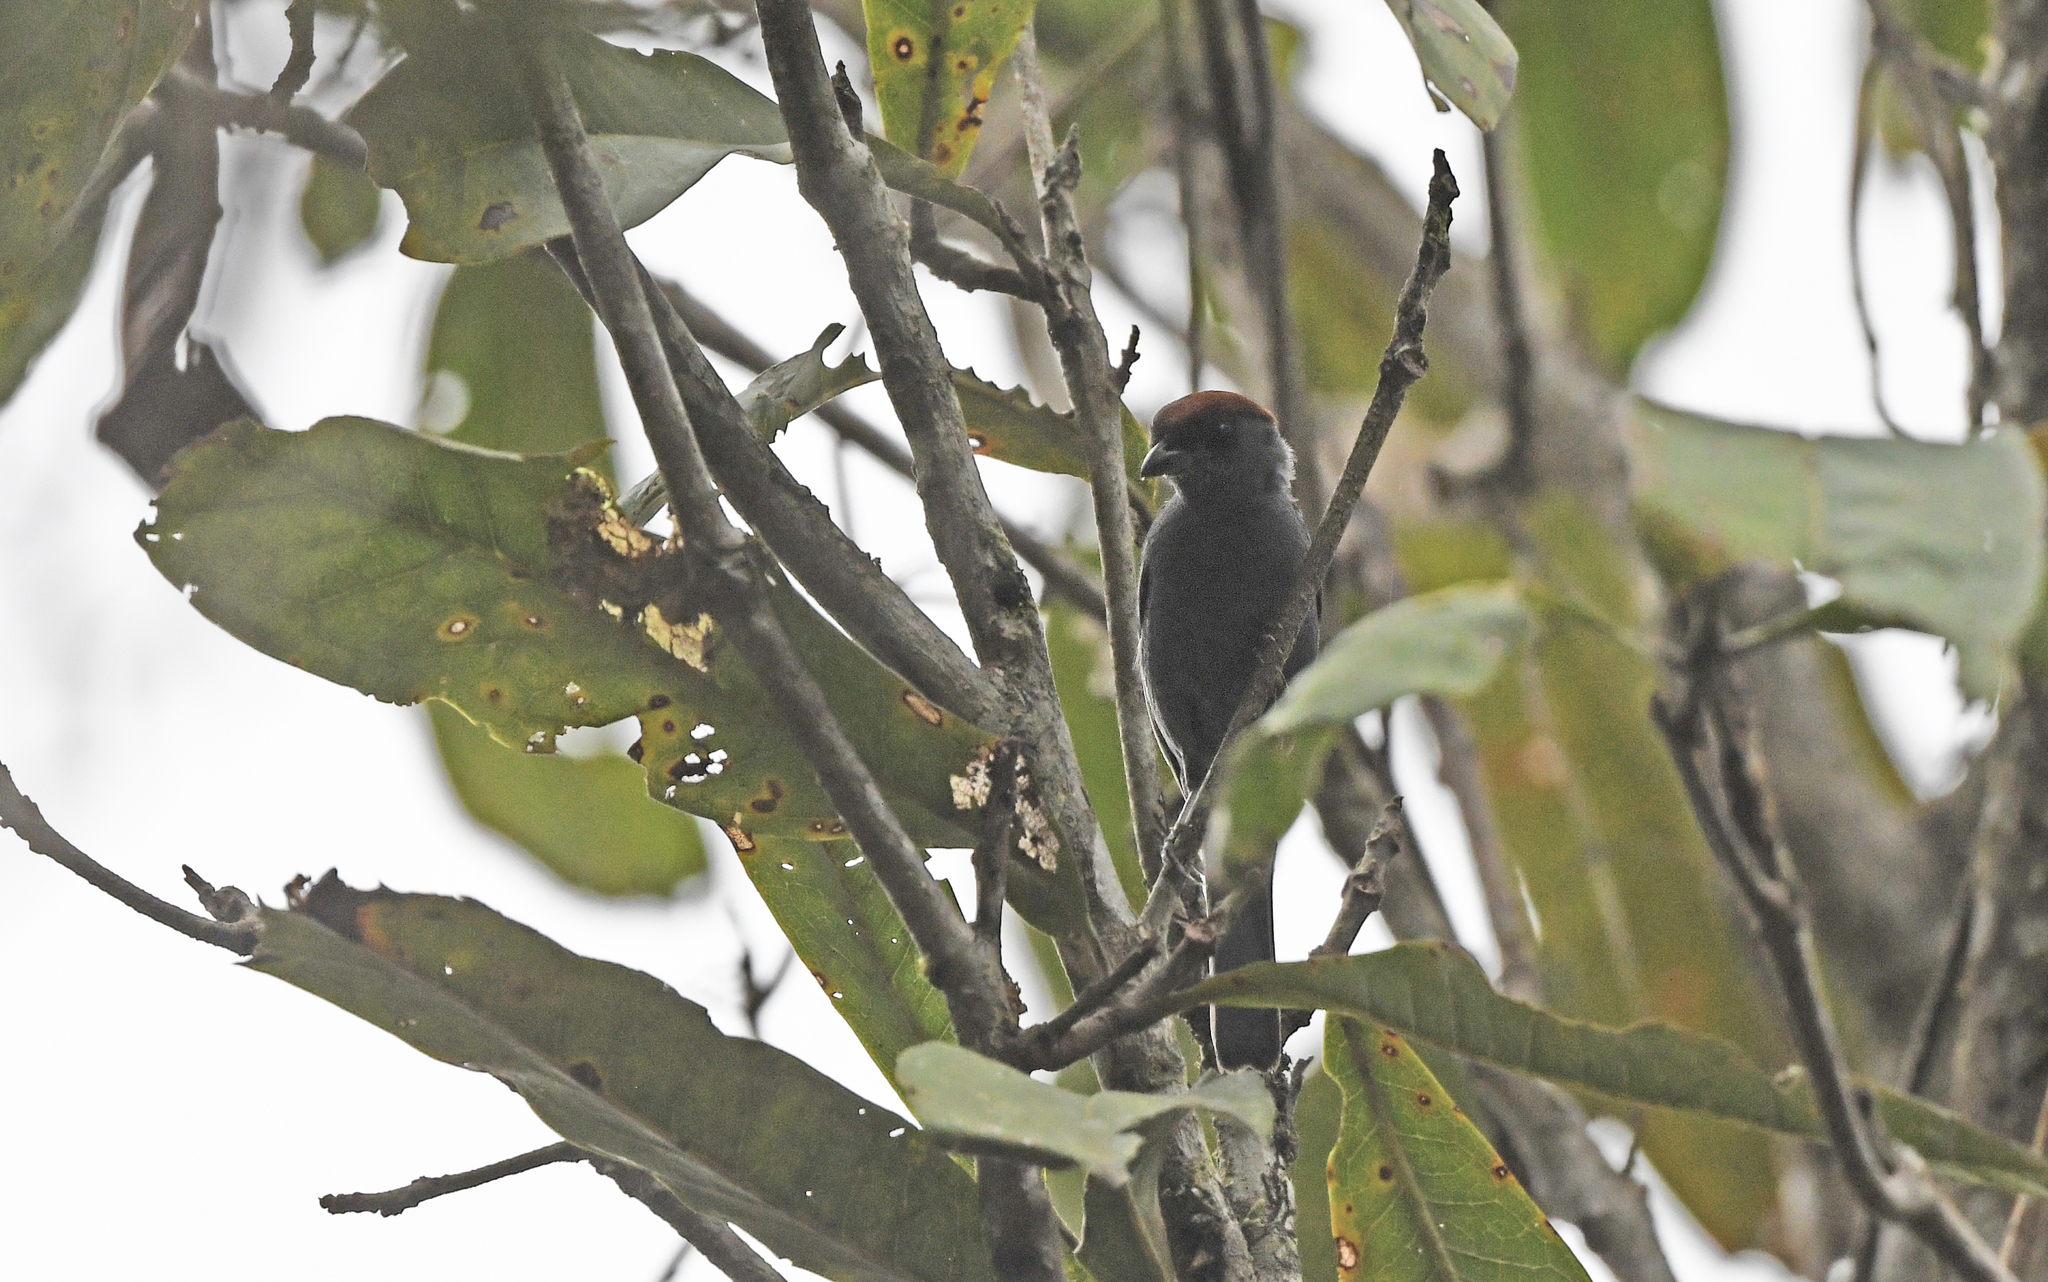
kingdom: Animalia
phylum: Chordata
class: Aves
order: Passeriformes
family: Thraupidae
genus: Creurgops
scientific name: Creurgops dentatus
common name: Slaty tanager
